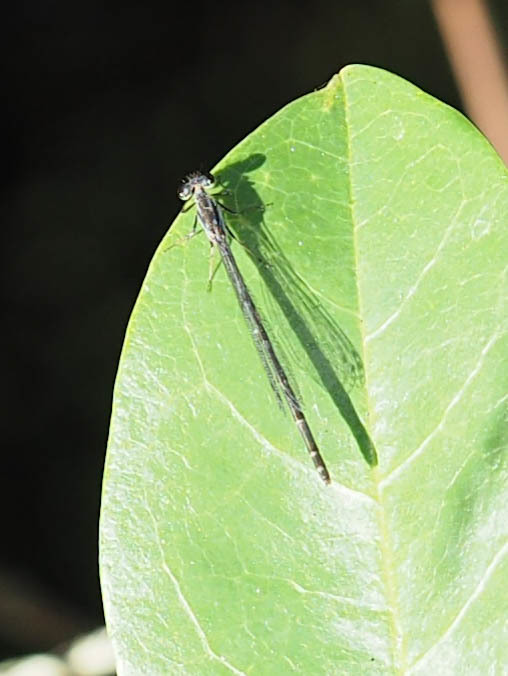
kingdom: Animalia
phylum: Arthropoda
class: Insecta
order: Odonata
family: Coenagrionidae
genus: Ischnura
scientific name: Ischnura posita
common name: Fragile forktail
